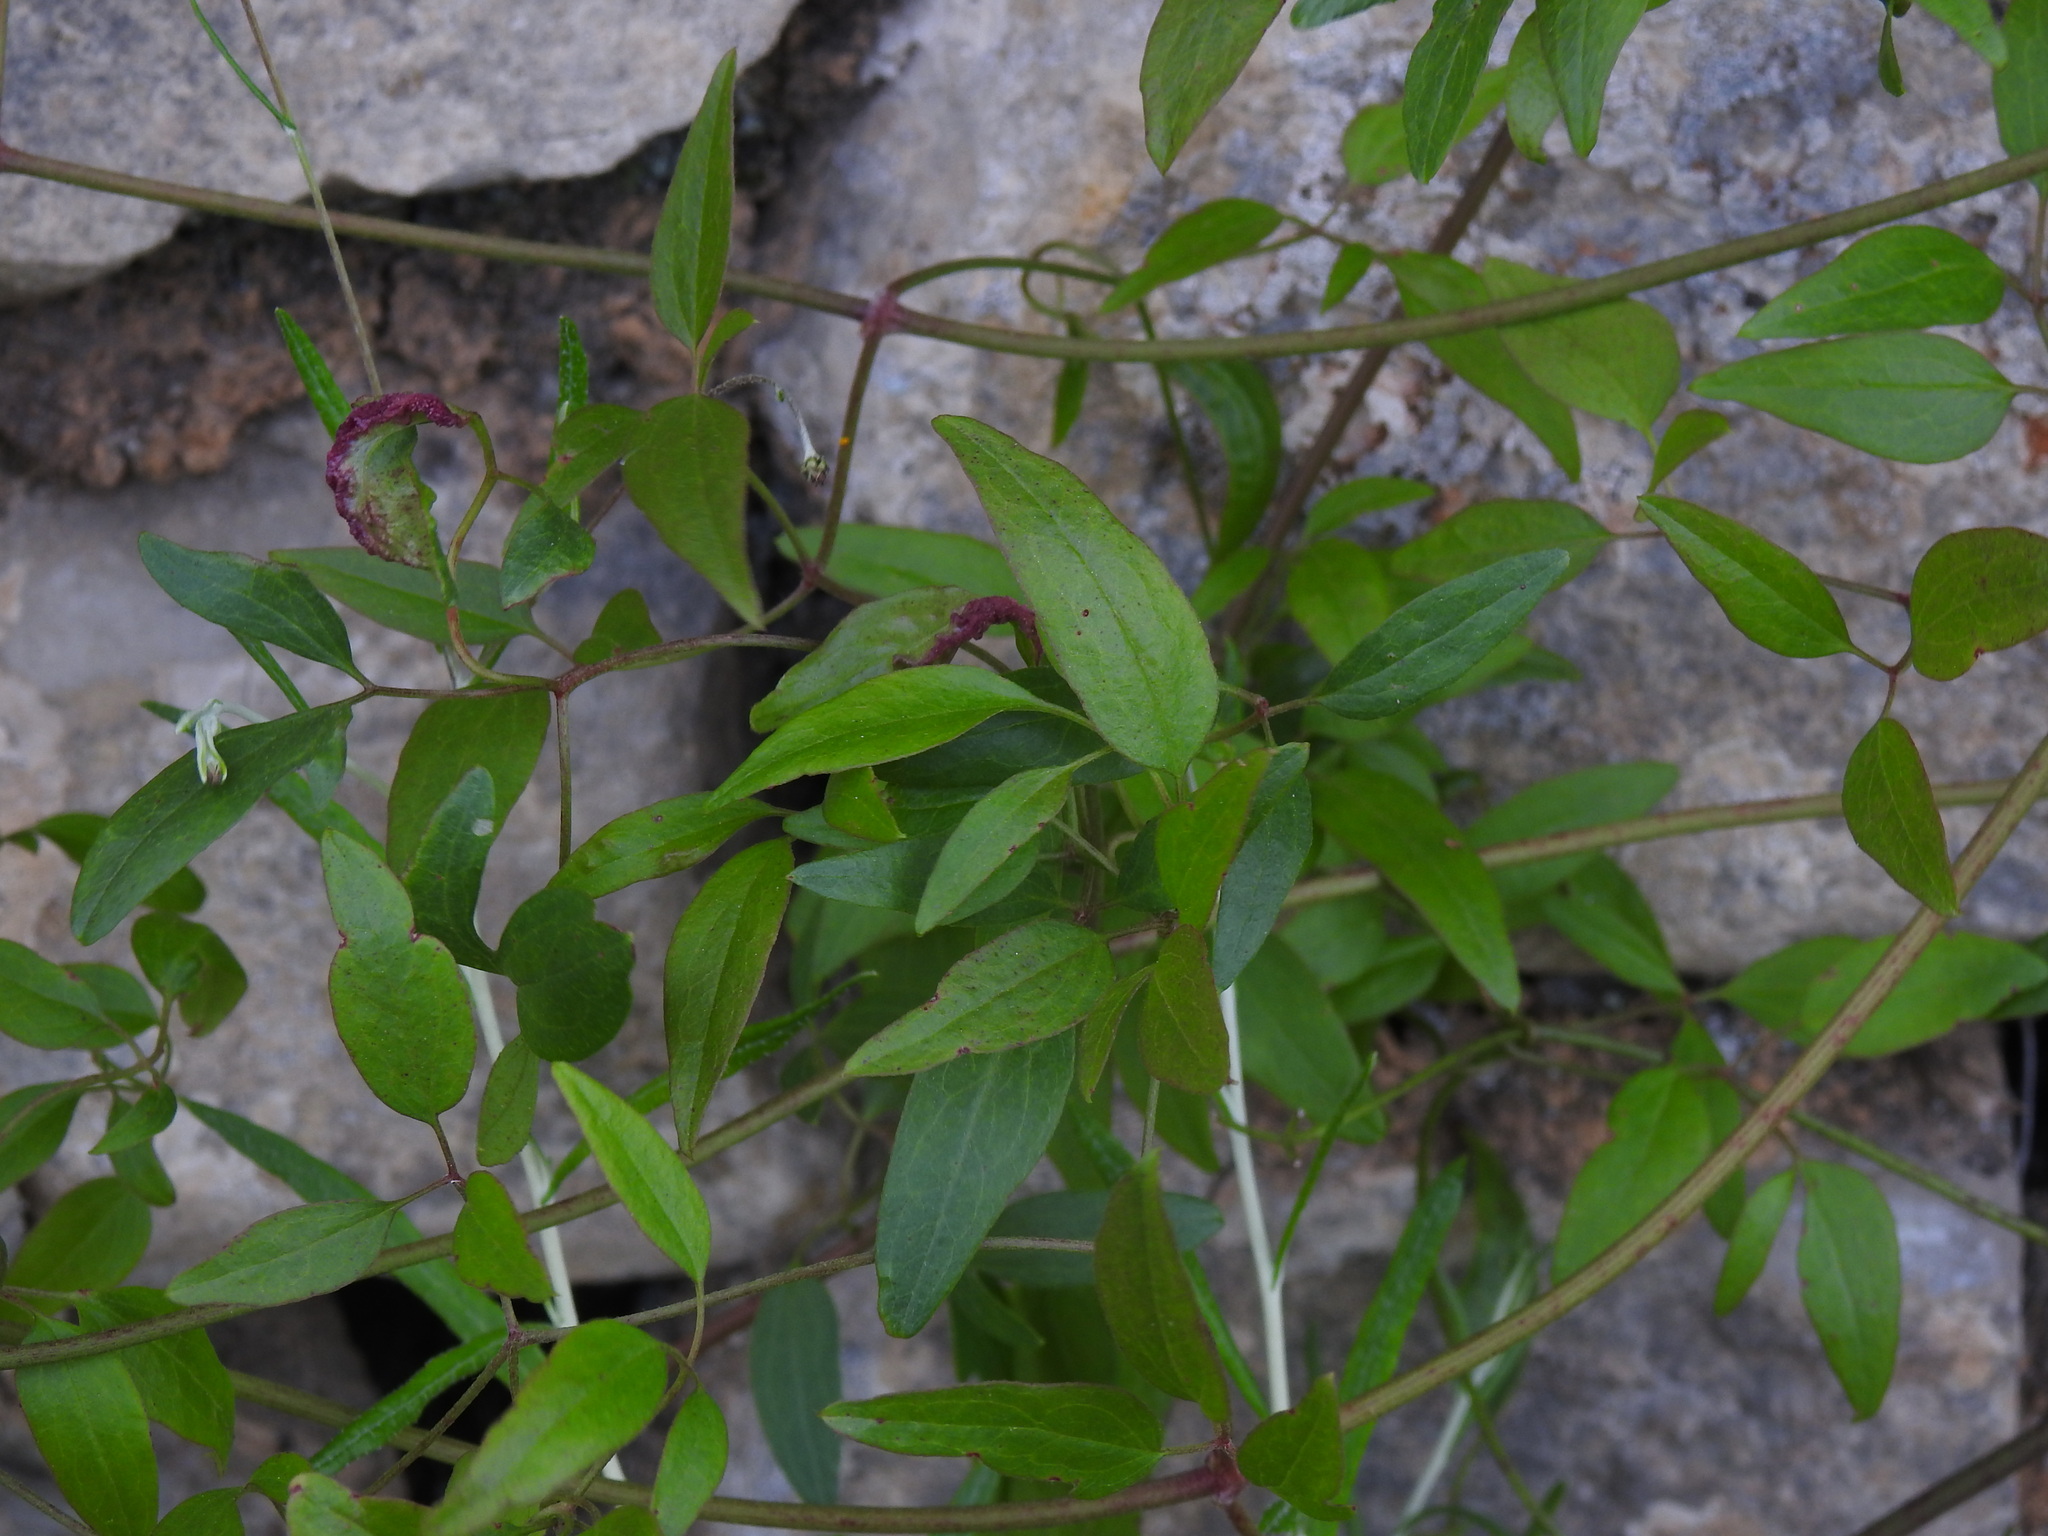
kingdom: Plantae
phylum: Tracheophyta
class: Magnoliopsida
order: Ranunculales
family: Ranunculaceae
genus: Clematis
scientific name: Clematis flammula
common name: Virgin's-bower
